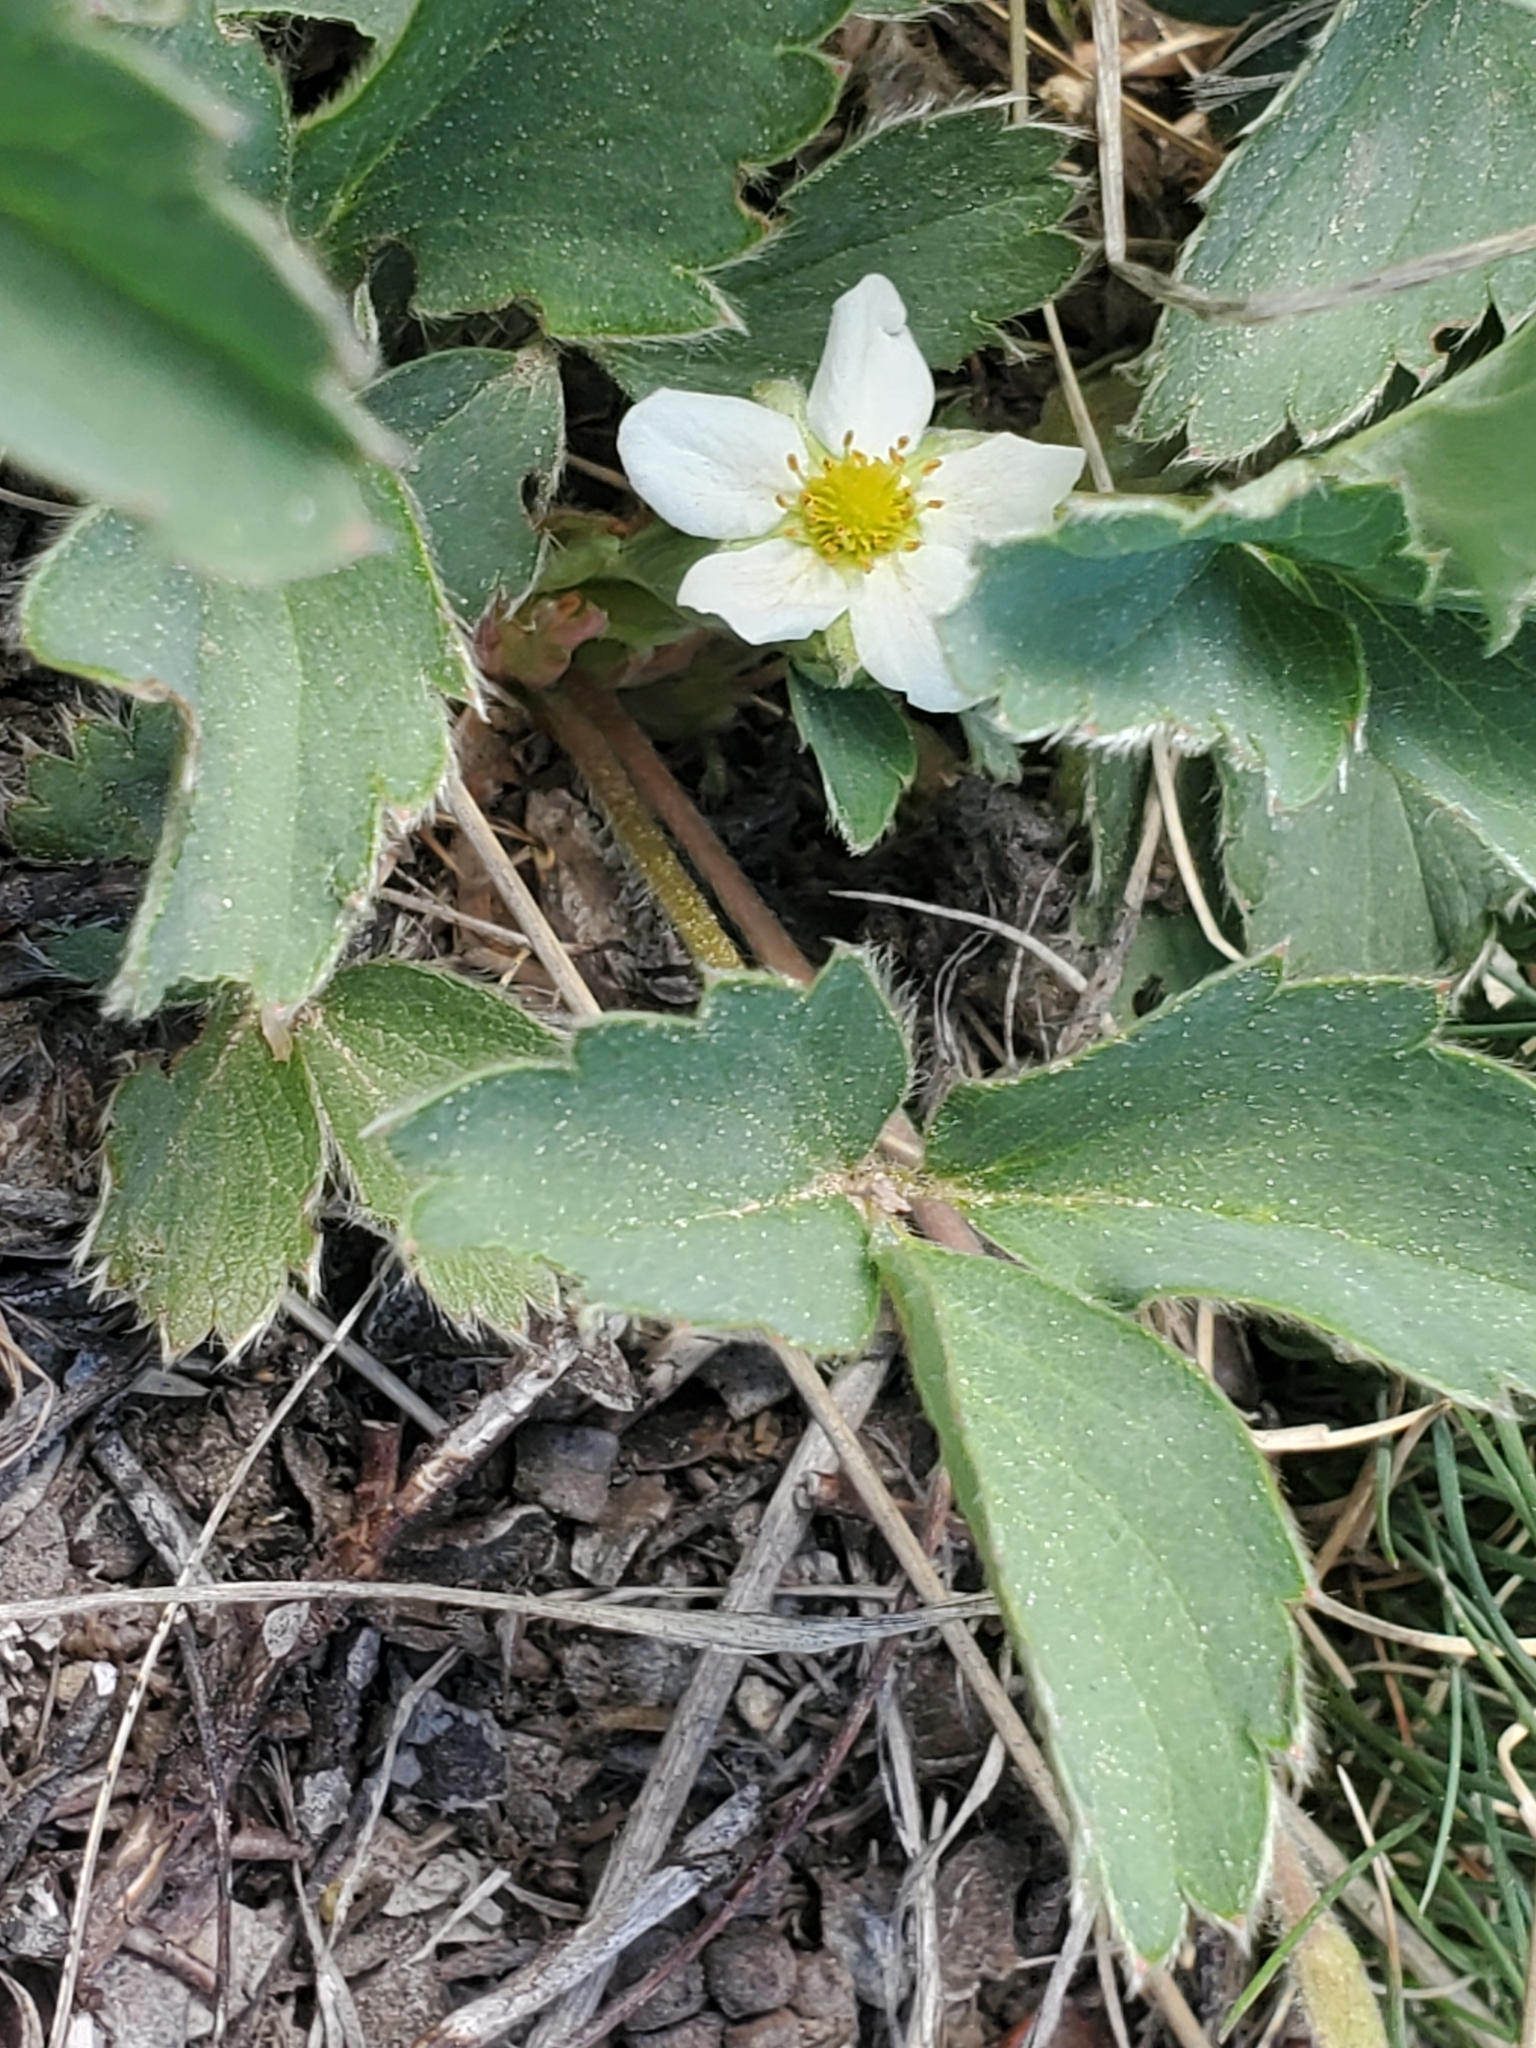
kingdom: Plantae
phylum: Tracheophyta
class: Magnoliopsida
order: Rosales
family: Rosaceae
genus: Fragaria
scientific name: Fragaria virginiana
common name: Thickleaved wild strawberry
